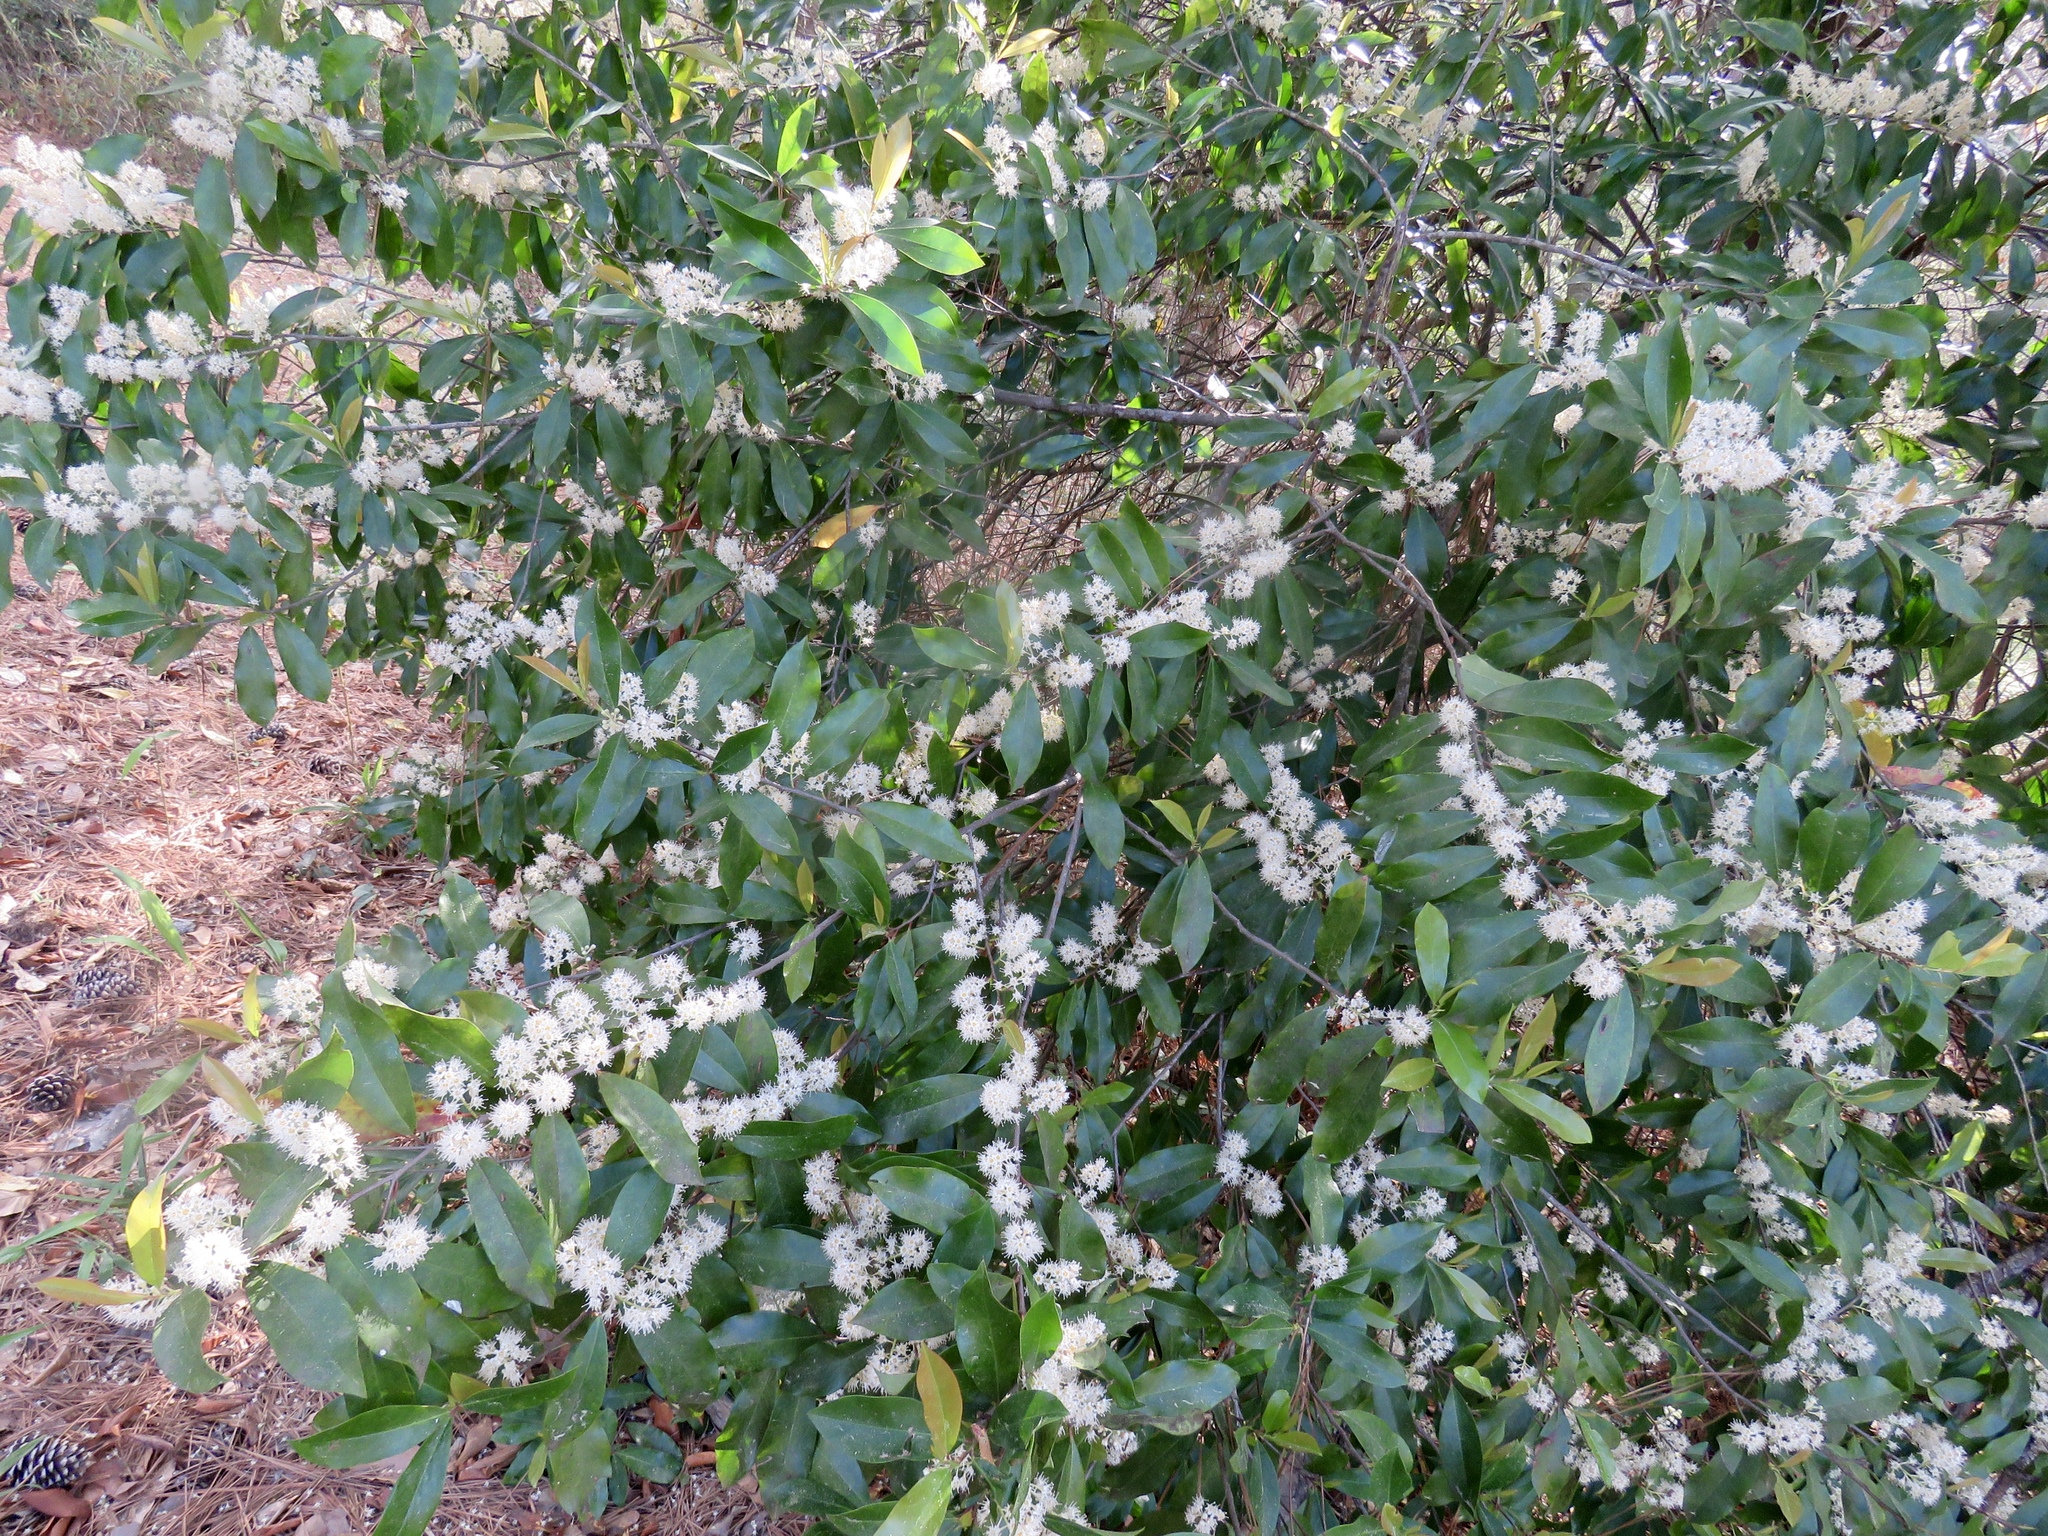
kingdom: Plantae
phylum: Tracheophyta
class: Magnoliopsida
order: Rosales
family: Rosaceae
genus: Prunus
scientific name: Prunus caroliniana
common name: Carolina laurel cherry
